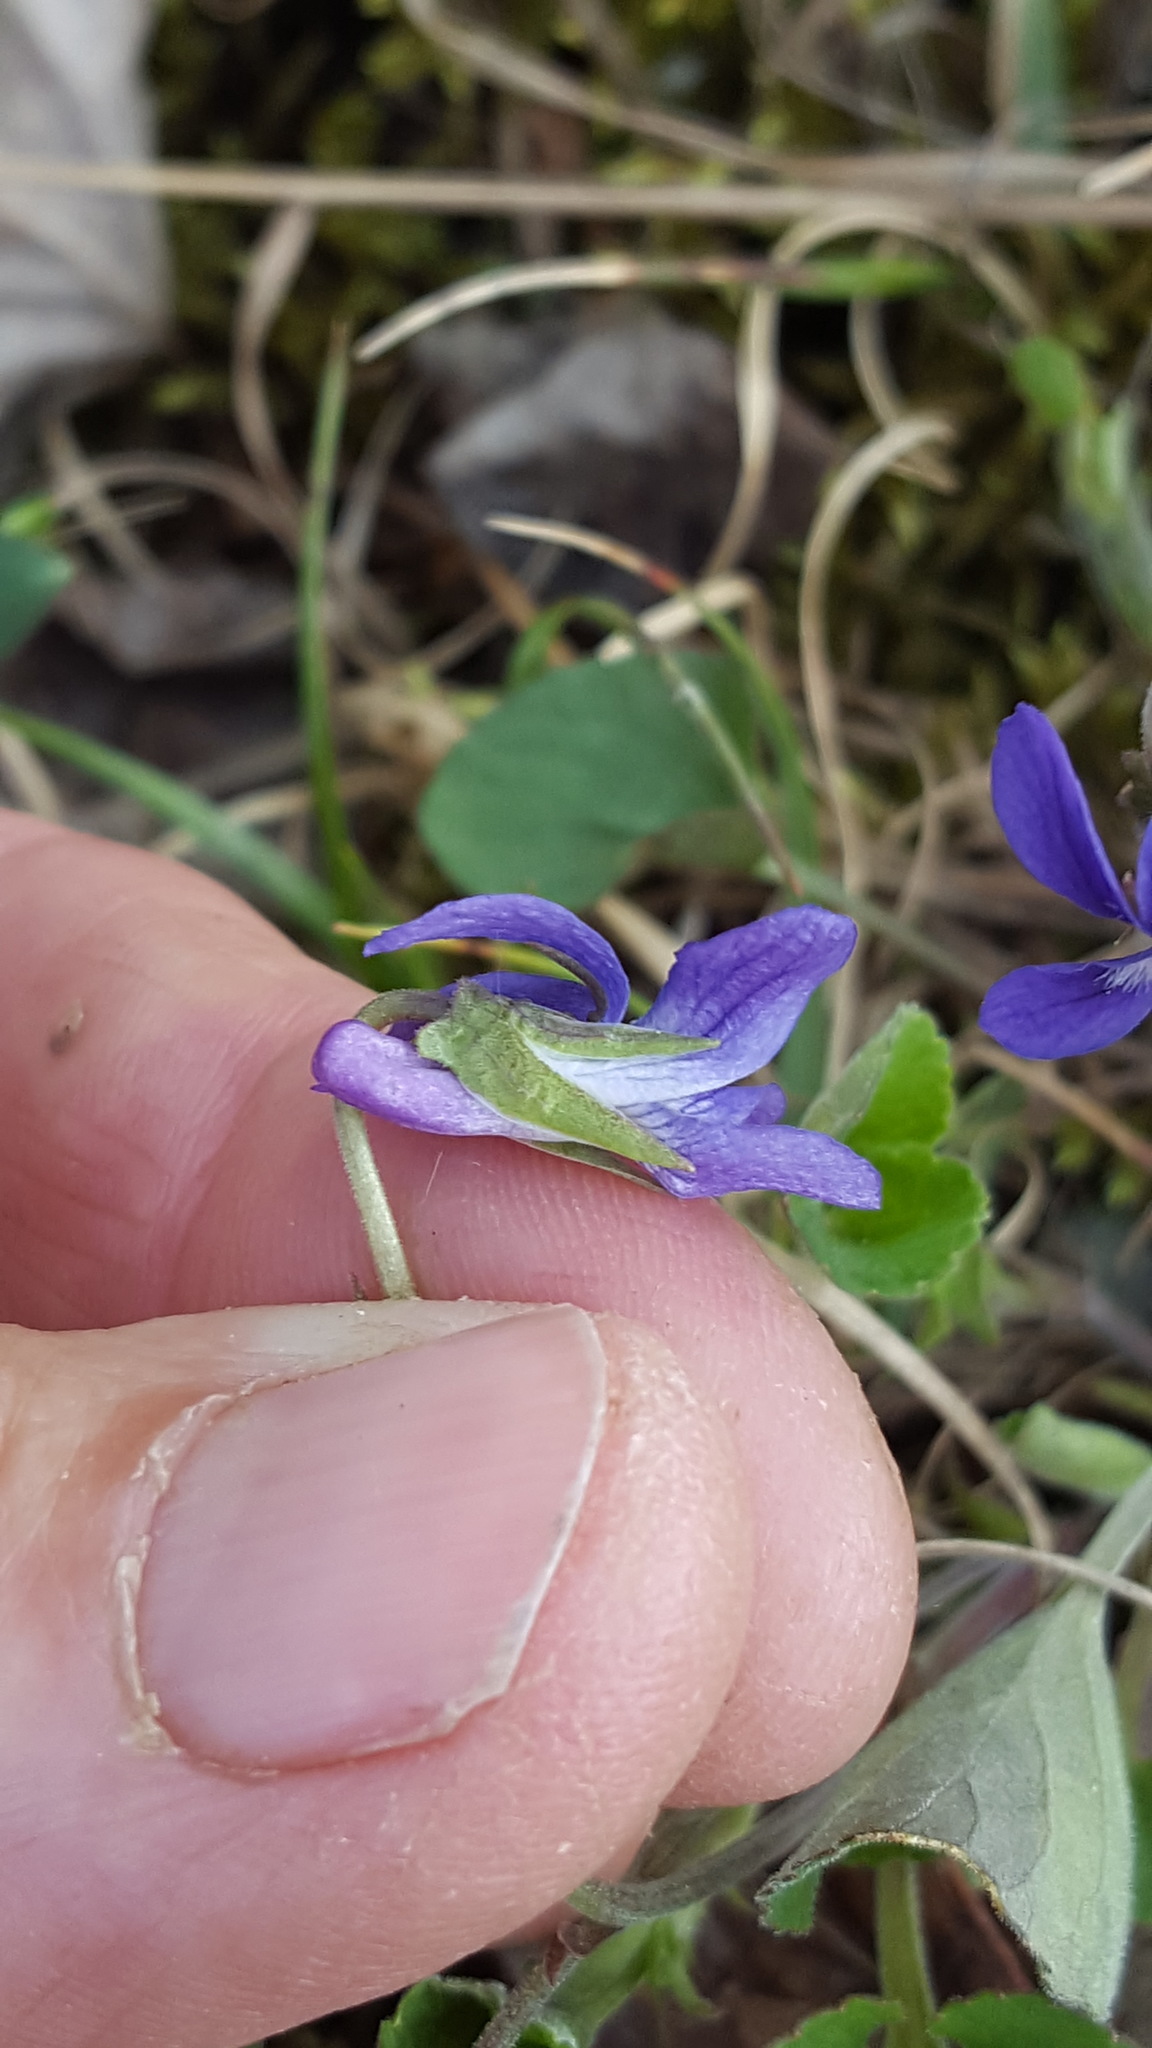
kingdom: Plantae
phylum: Tracheophyta
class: Magnoliopsida
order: Malpighiales
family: Violaceae
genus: Viola
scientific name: Viola adunca
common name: Sand violet
